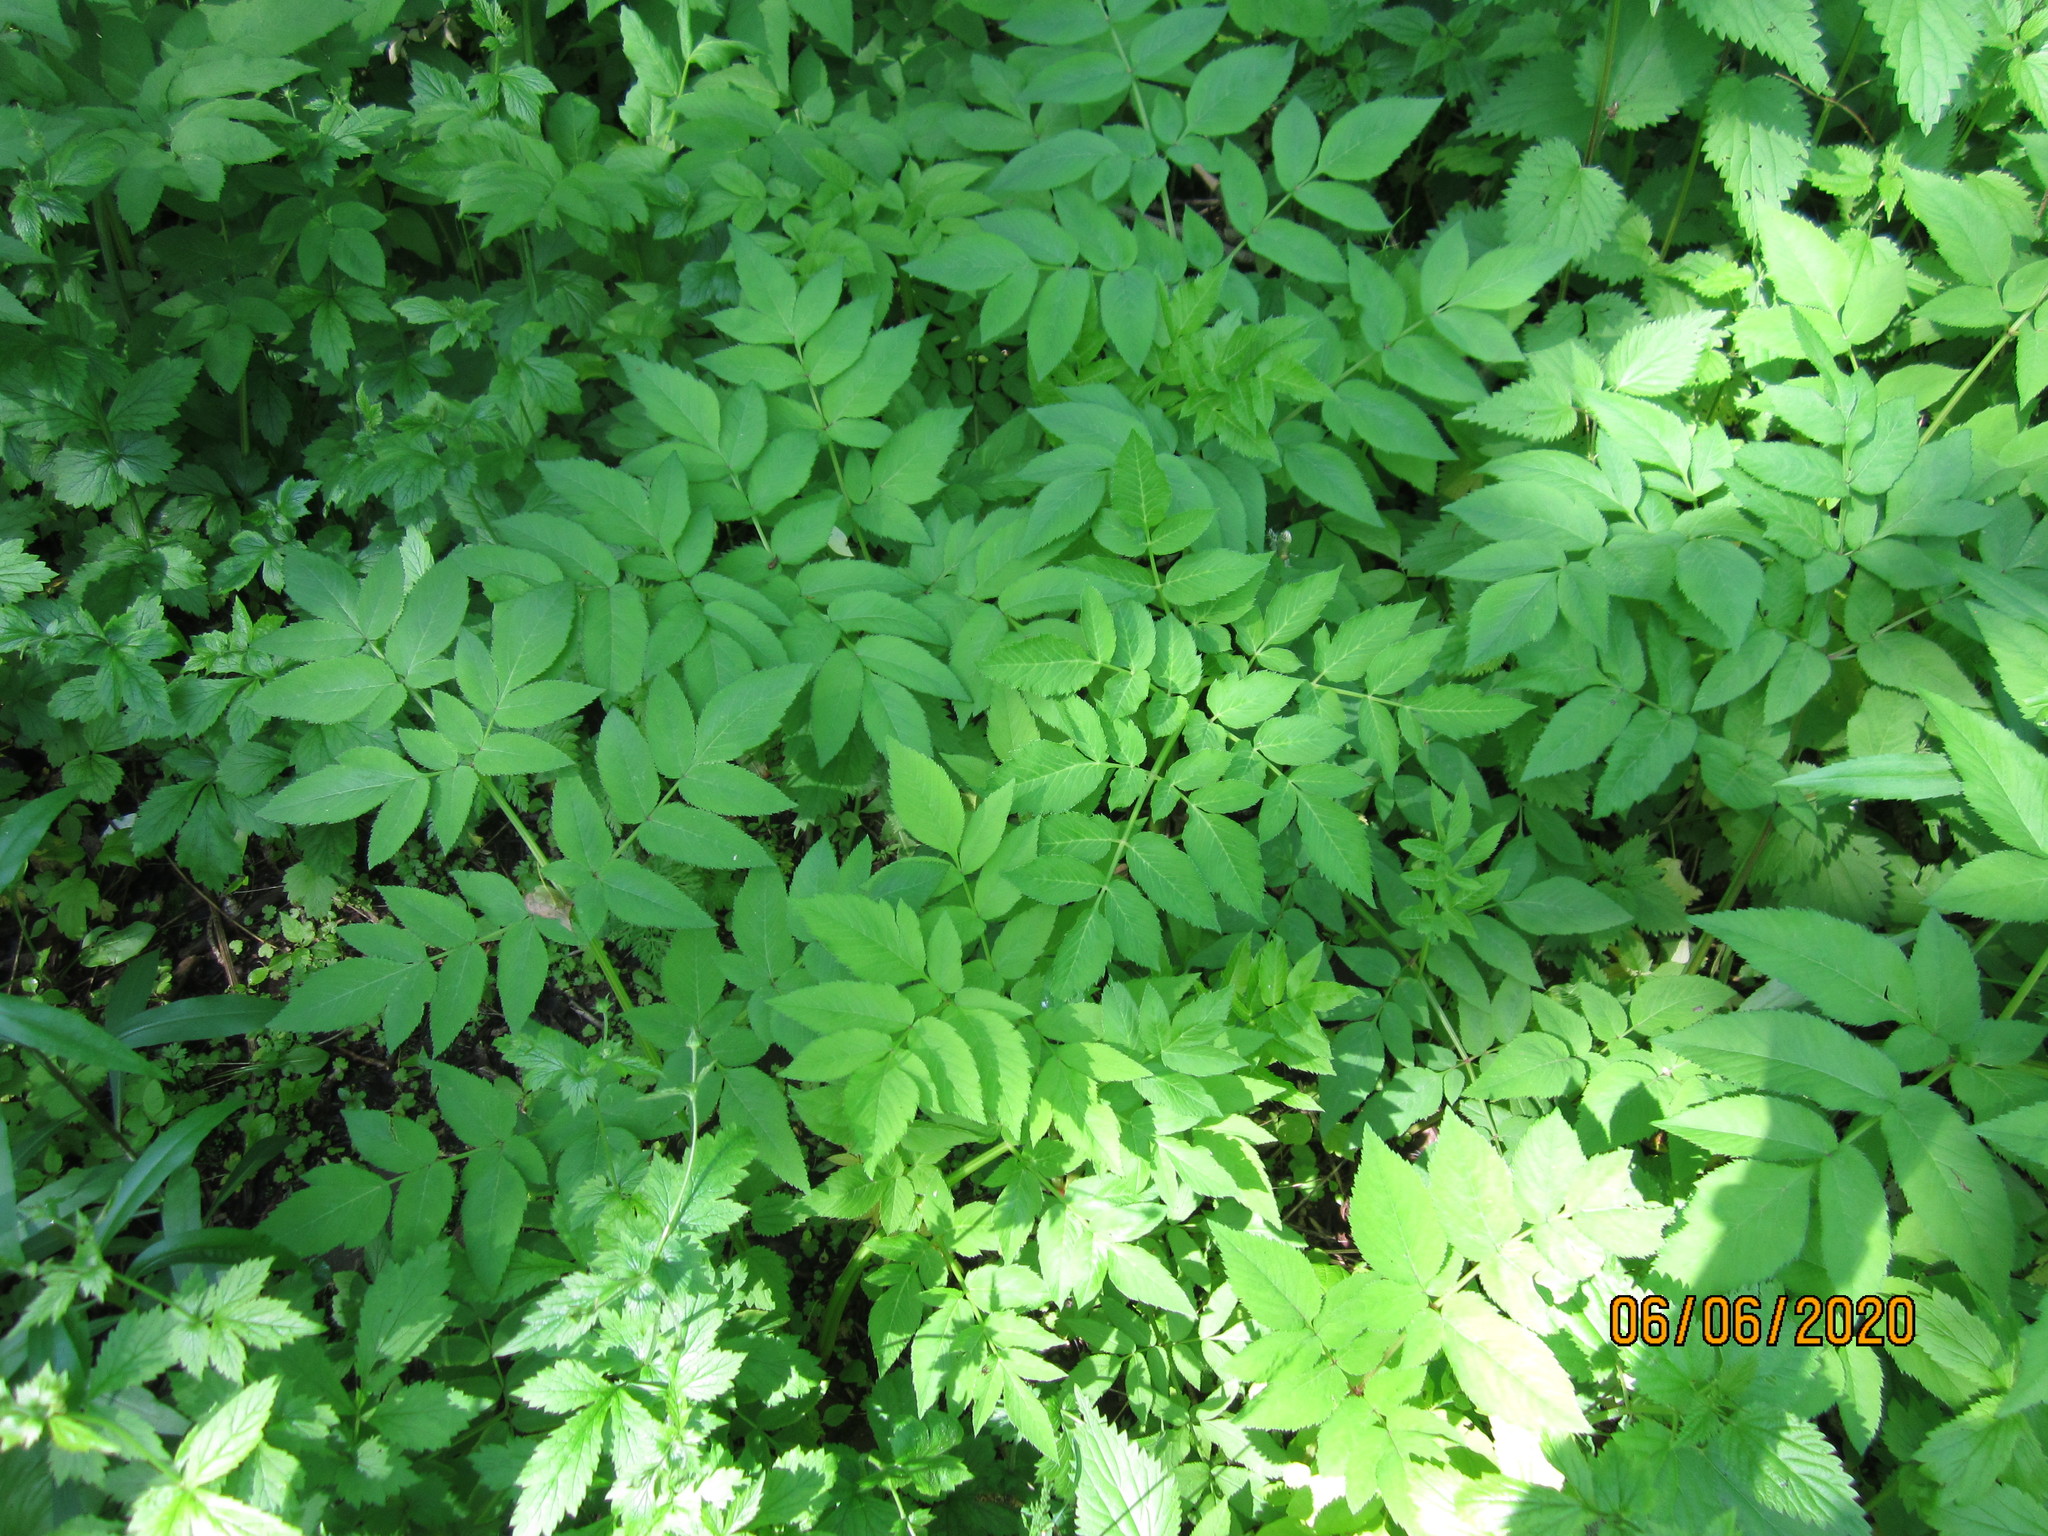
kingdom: Plantae
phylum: Tracheophyta
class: Magnoliopsida
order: Apiales
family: Apiaceae
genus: Angelica
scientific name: Angelica sylvestris
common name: Wild angelica
